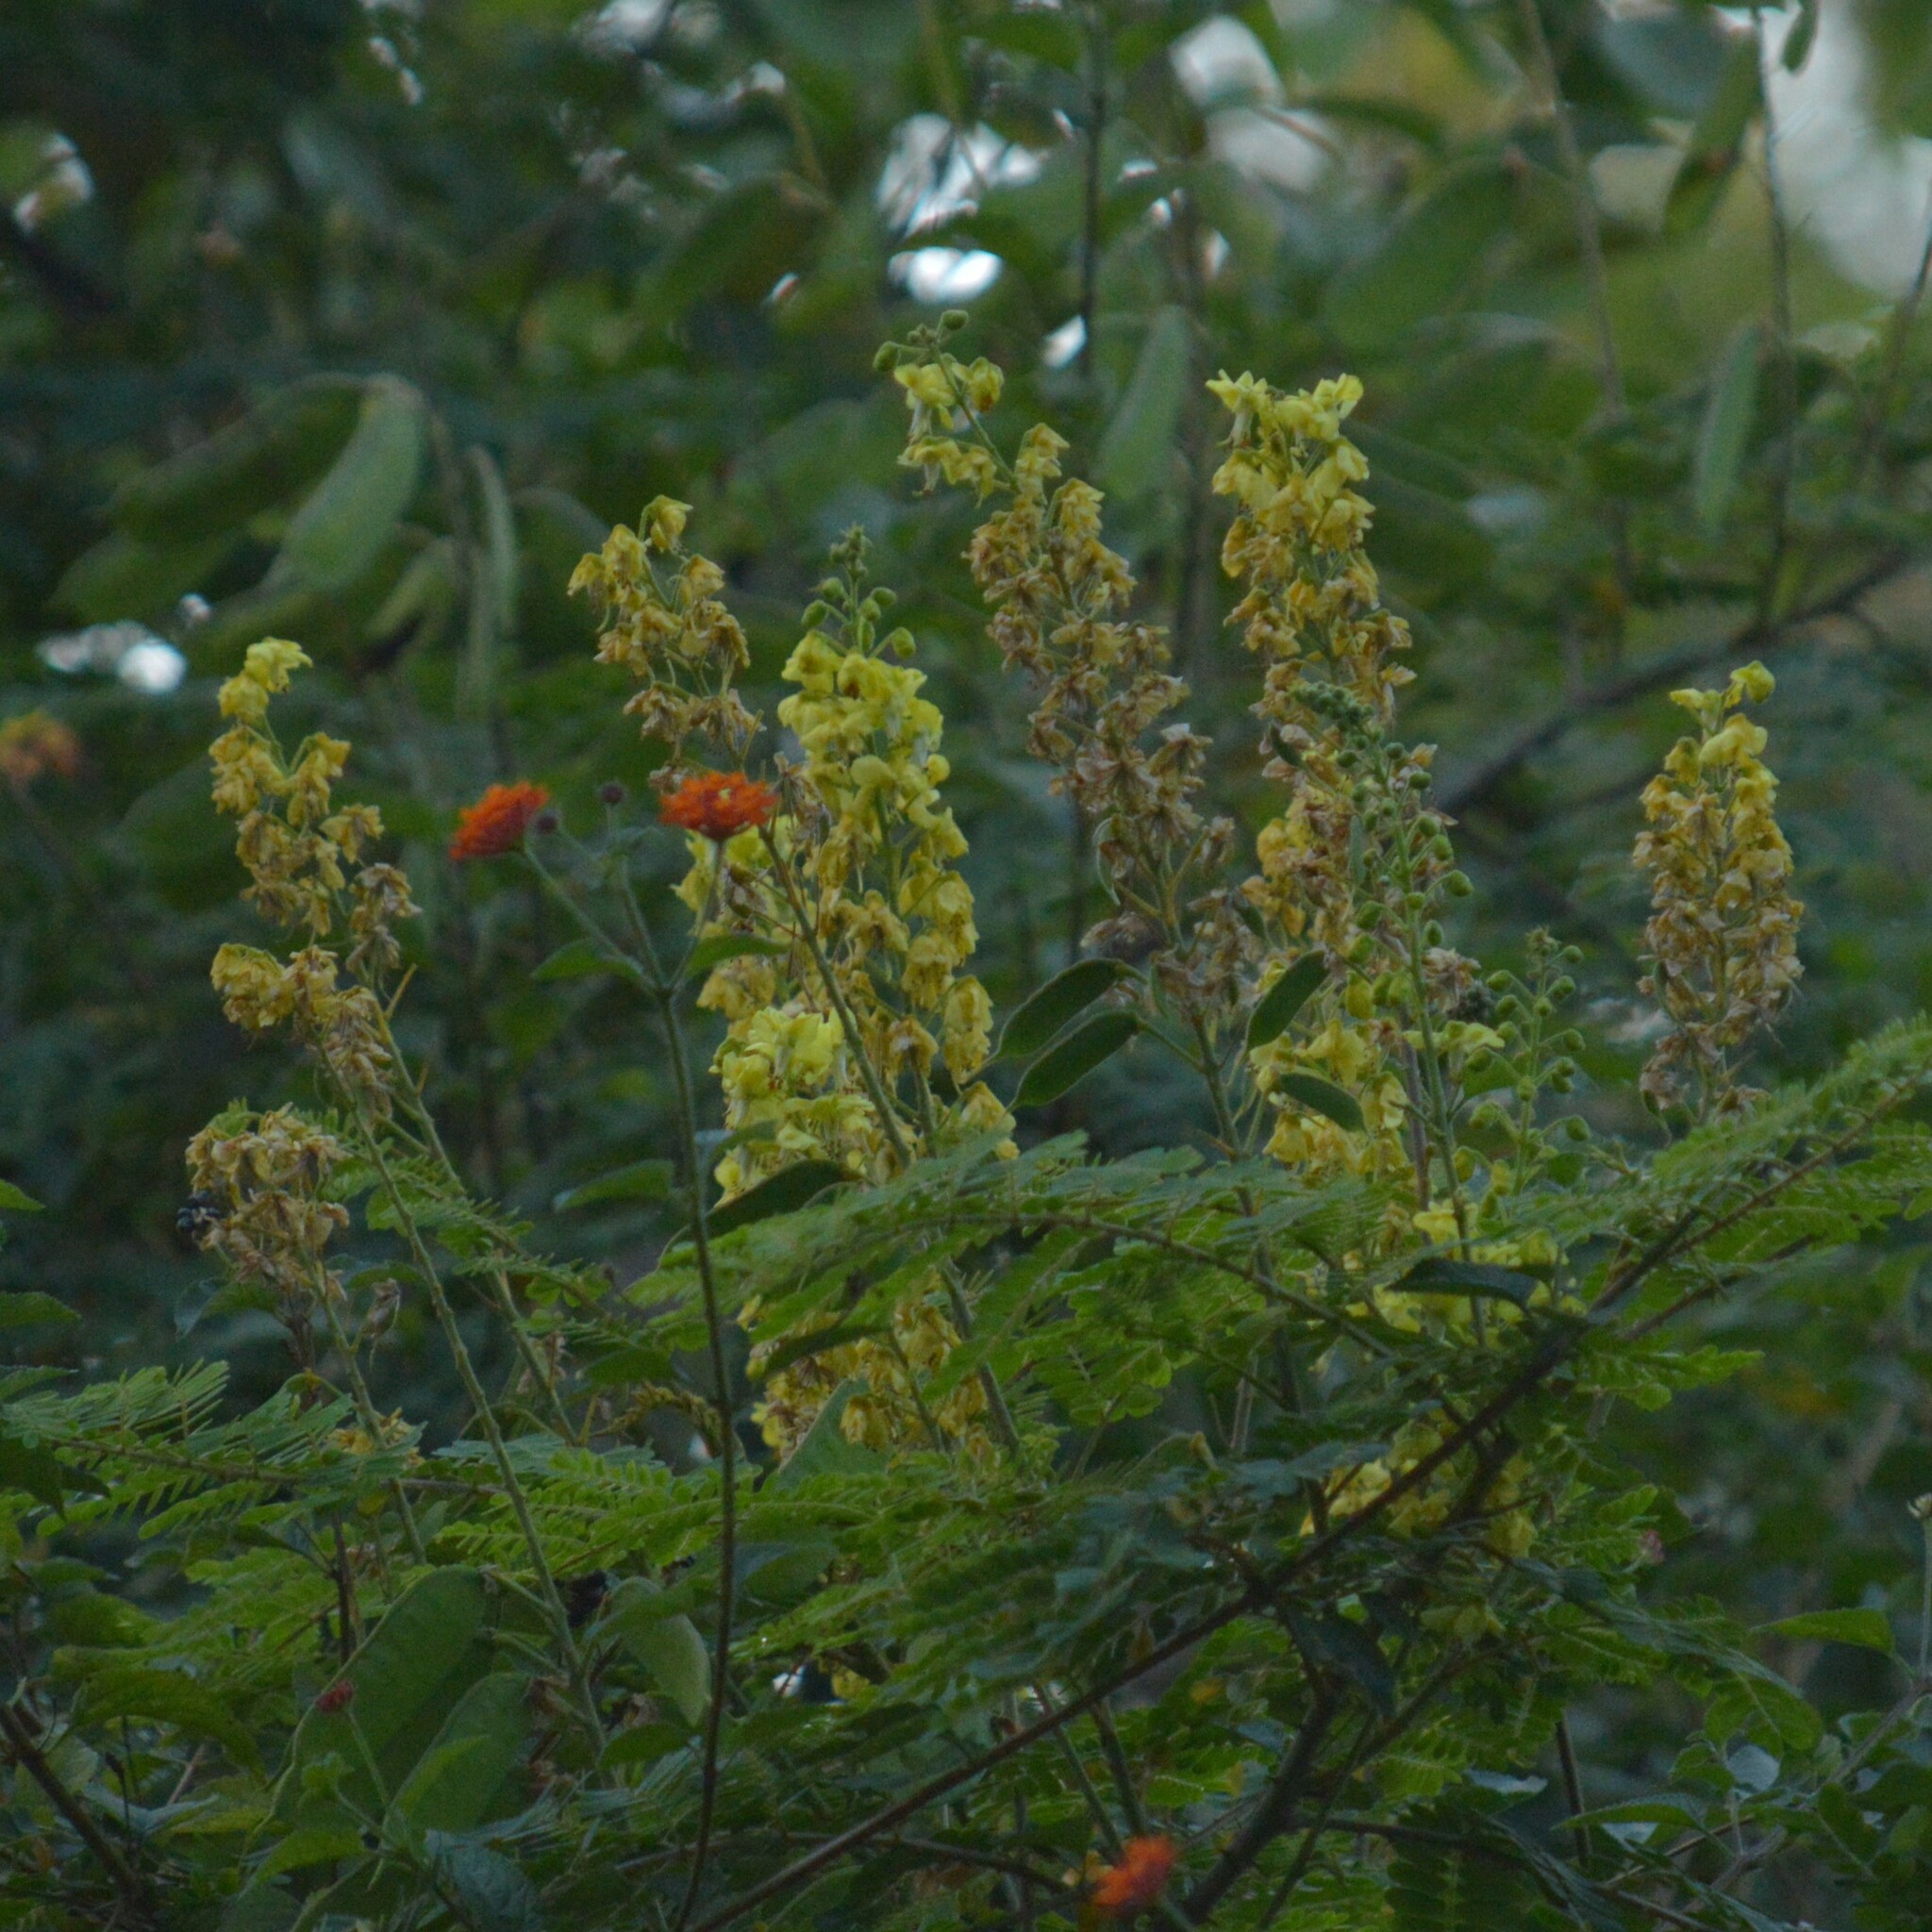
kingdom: Plantae
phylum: Tracheophyta
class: Magnoliopsida
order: Fabales
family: Fabaceae
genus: Guilandina
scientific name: Guilandina bonduc
